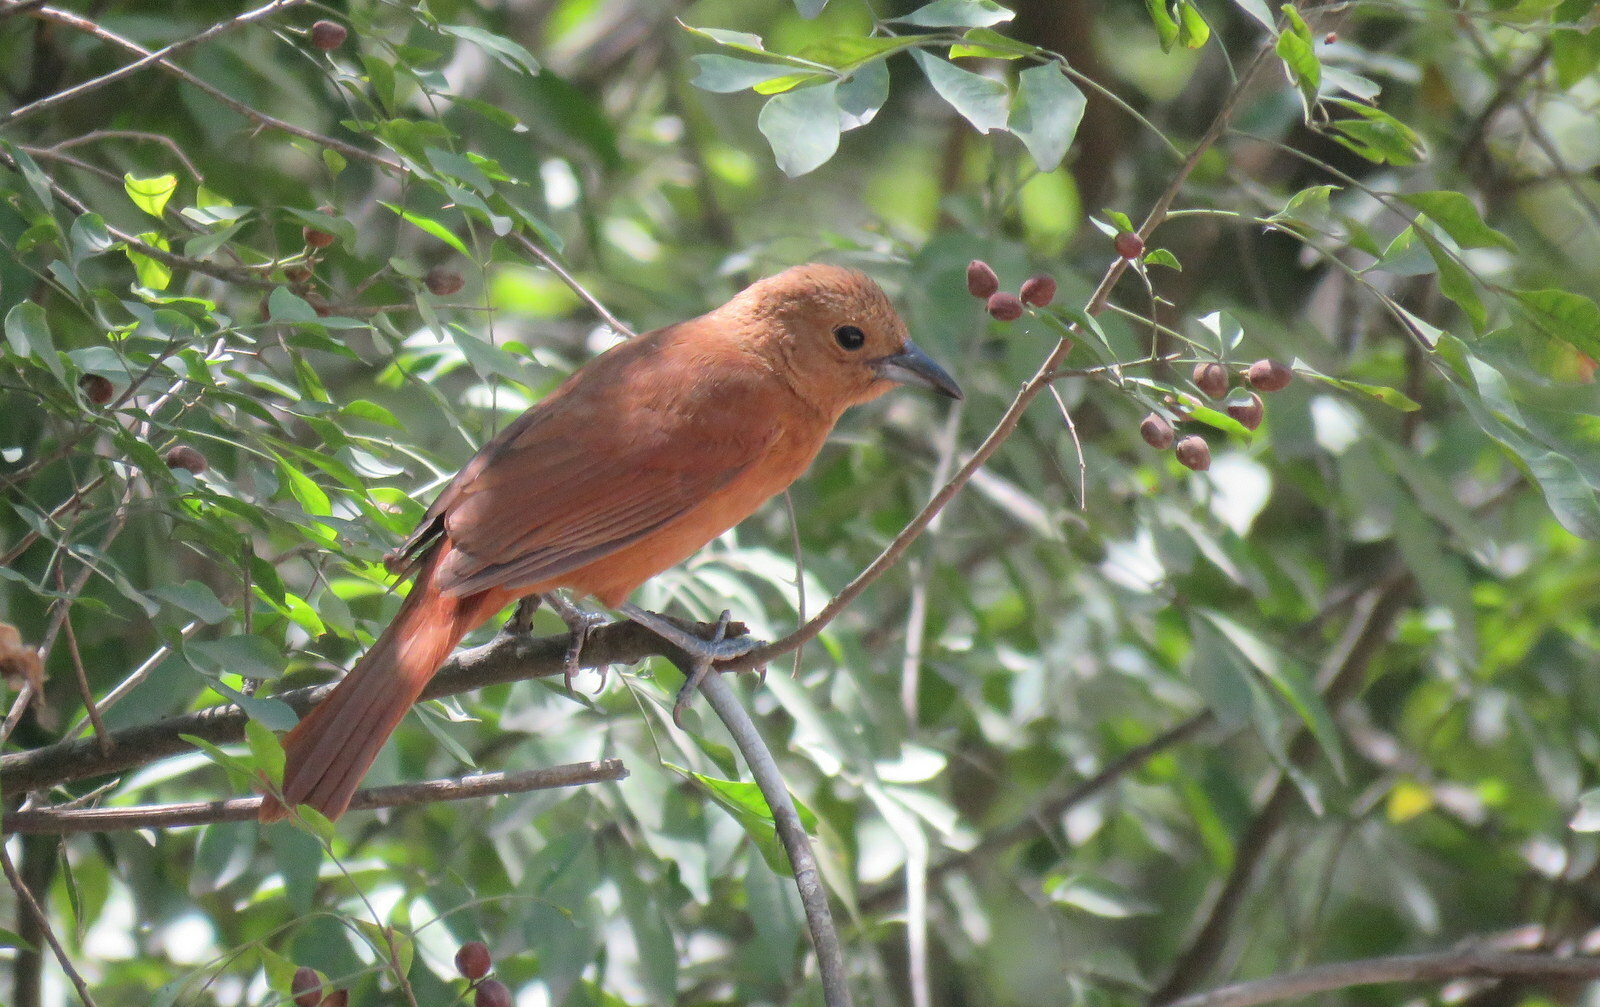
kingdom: Animalia
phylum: Chordata
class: Aves
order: Passeriformes
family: Thraupidae
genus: Tachyphonus
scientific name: Tachyphonus rufus
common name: White-lined tanager
